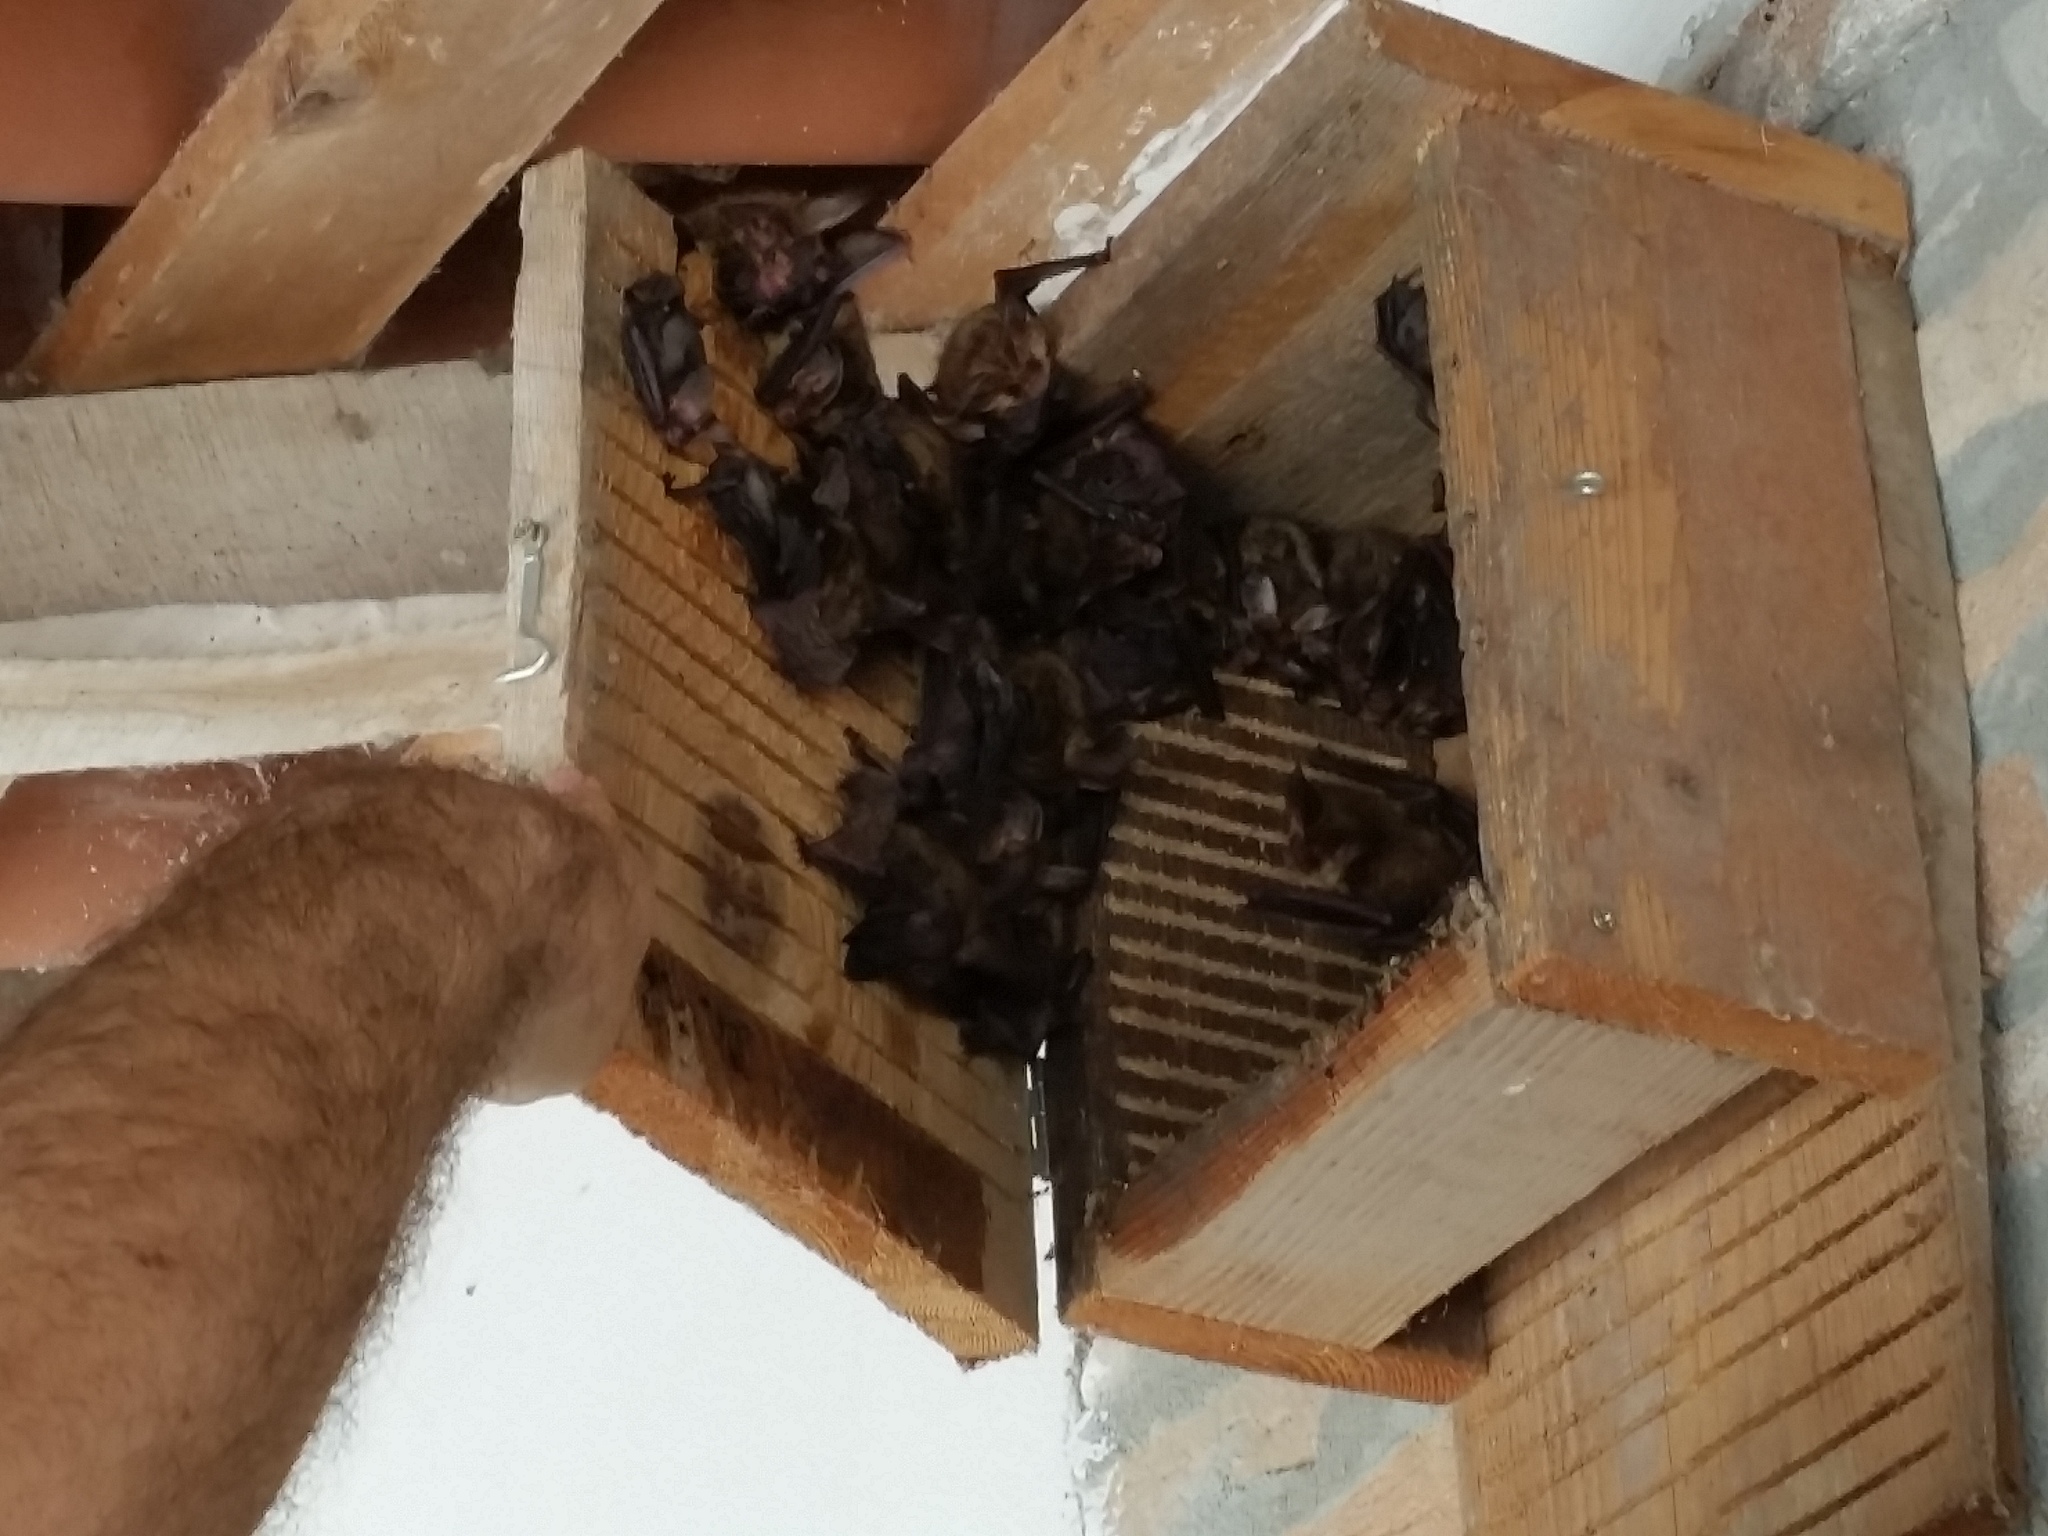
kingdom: Animalia
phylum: Chordata
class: Mammalia
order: Chiroptera
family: Vespertilionidae
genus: Plecotus
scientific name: Plecotus auritus
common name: Brown long-eared bat
